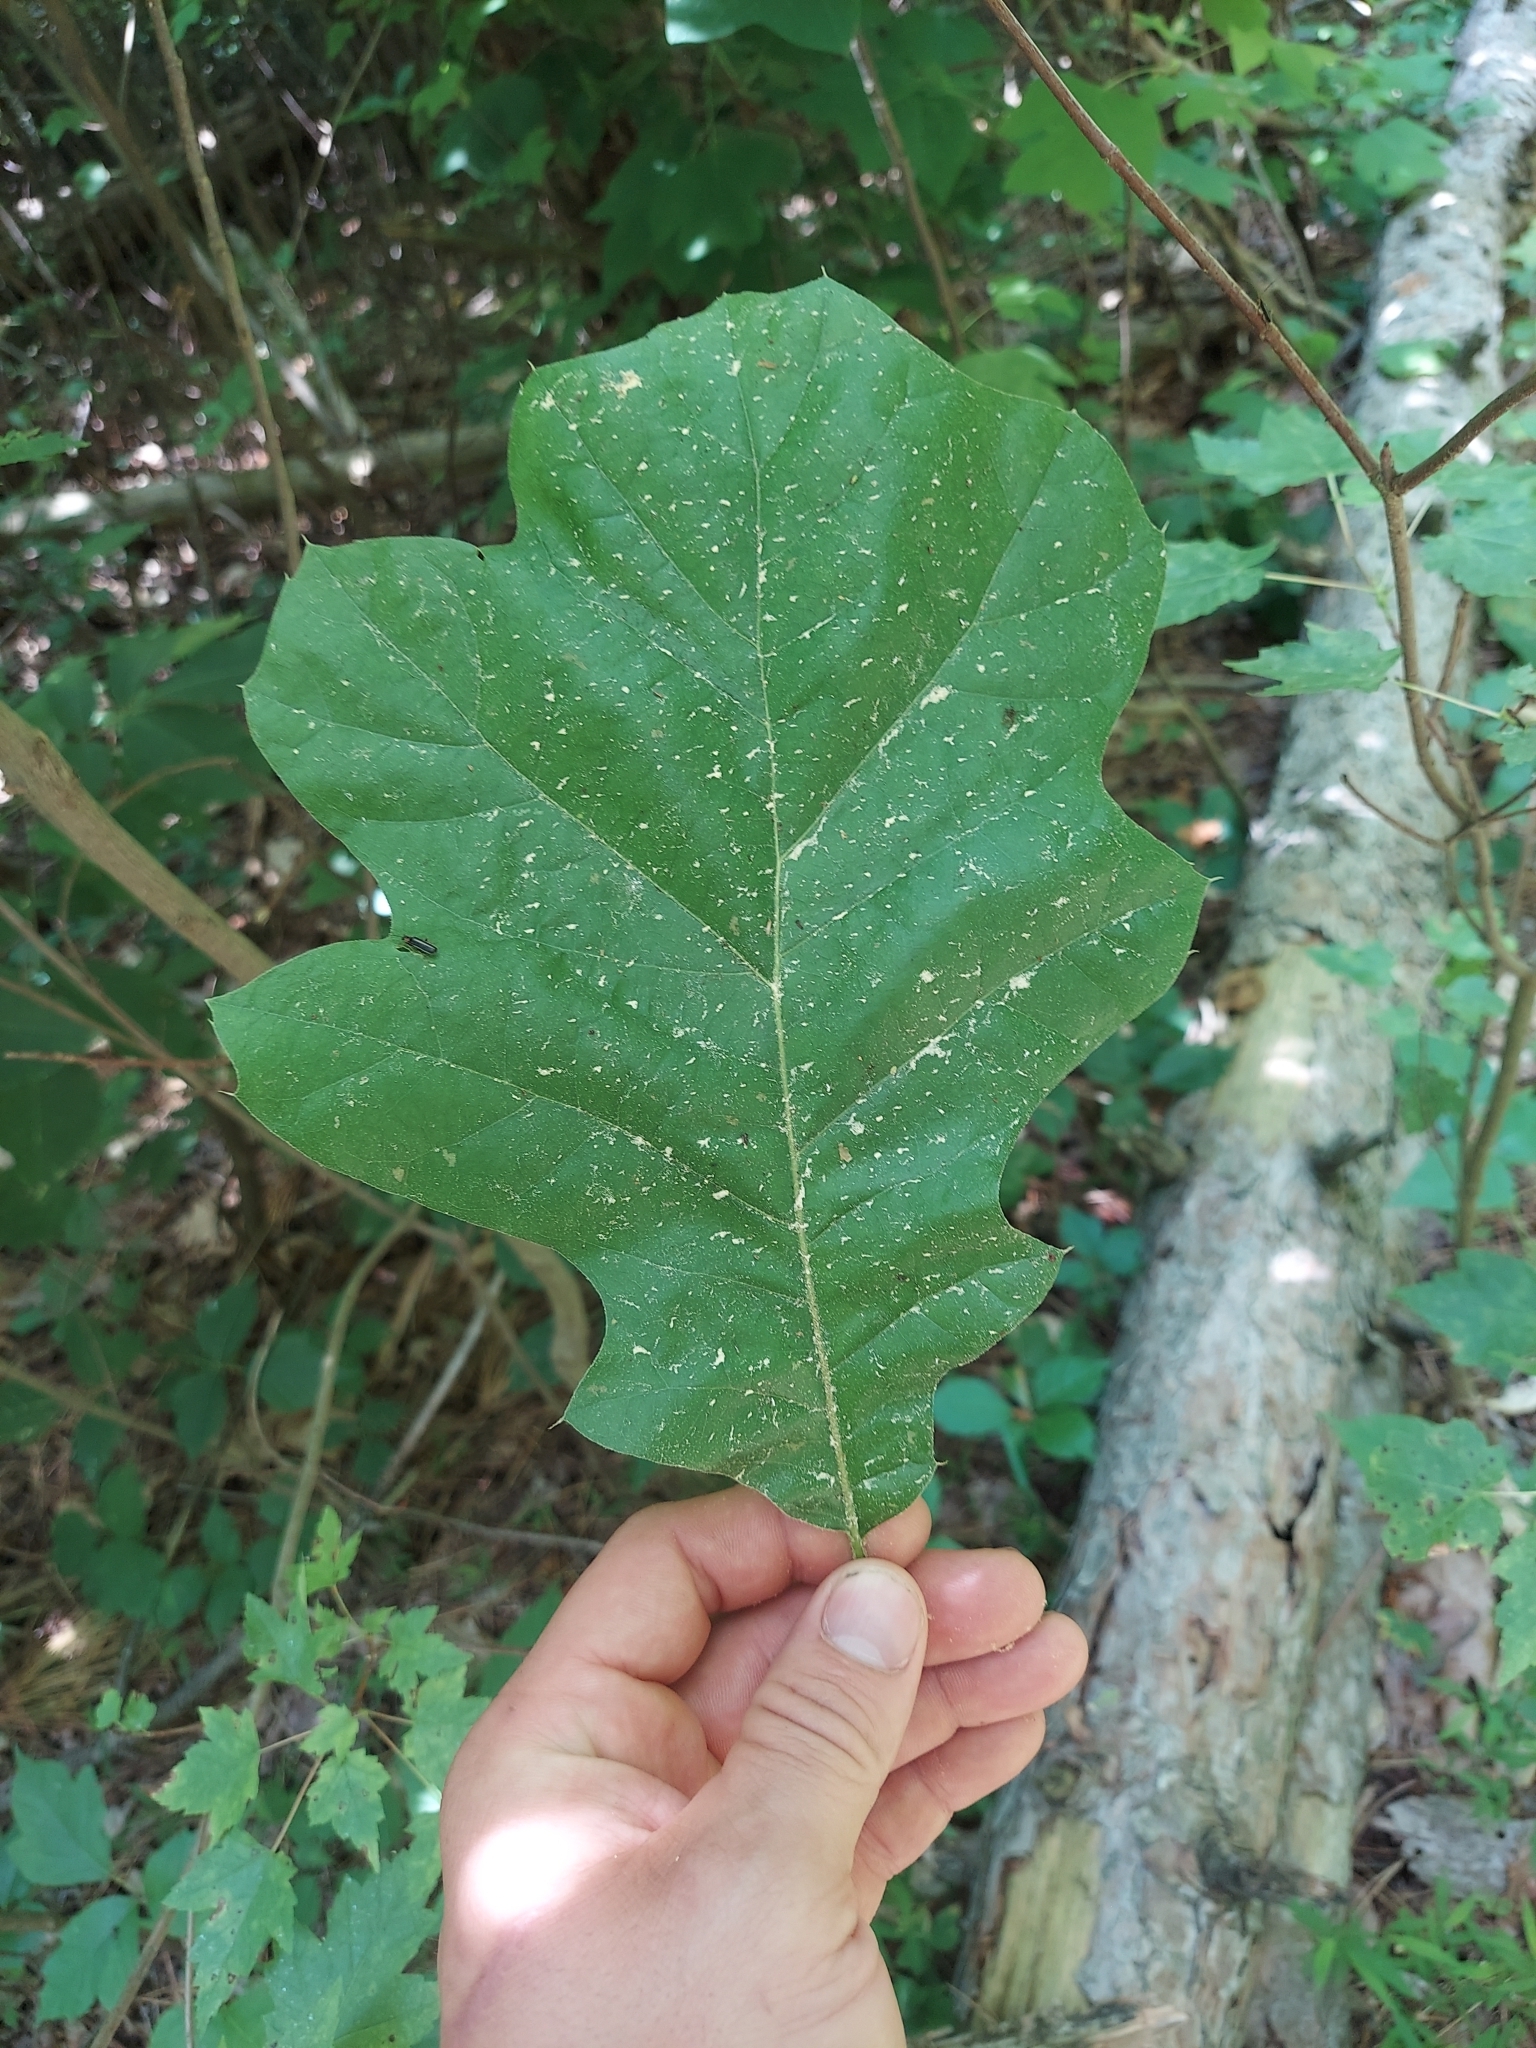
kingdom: Plantae
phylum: Tracheophyta
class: Magnoliopsida
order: Fagales
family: Fagaceae
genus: Quercus
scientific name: Quercus velutina
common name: Black oak
